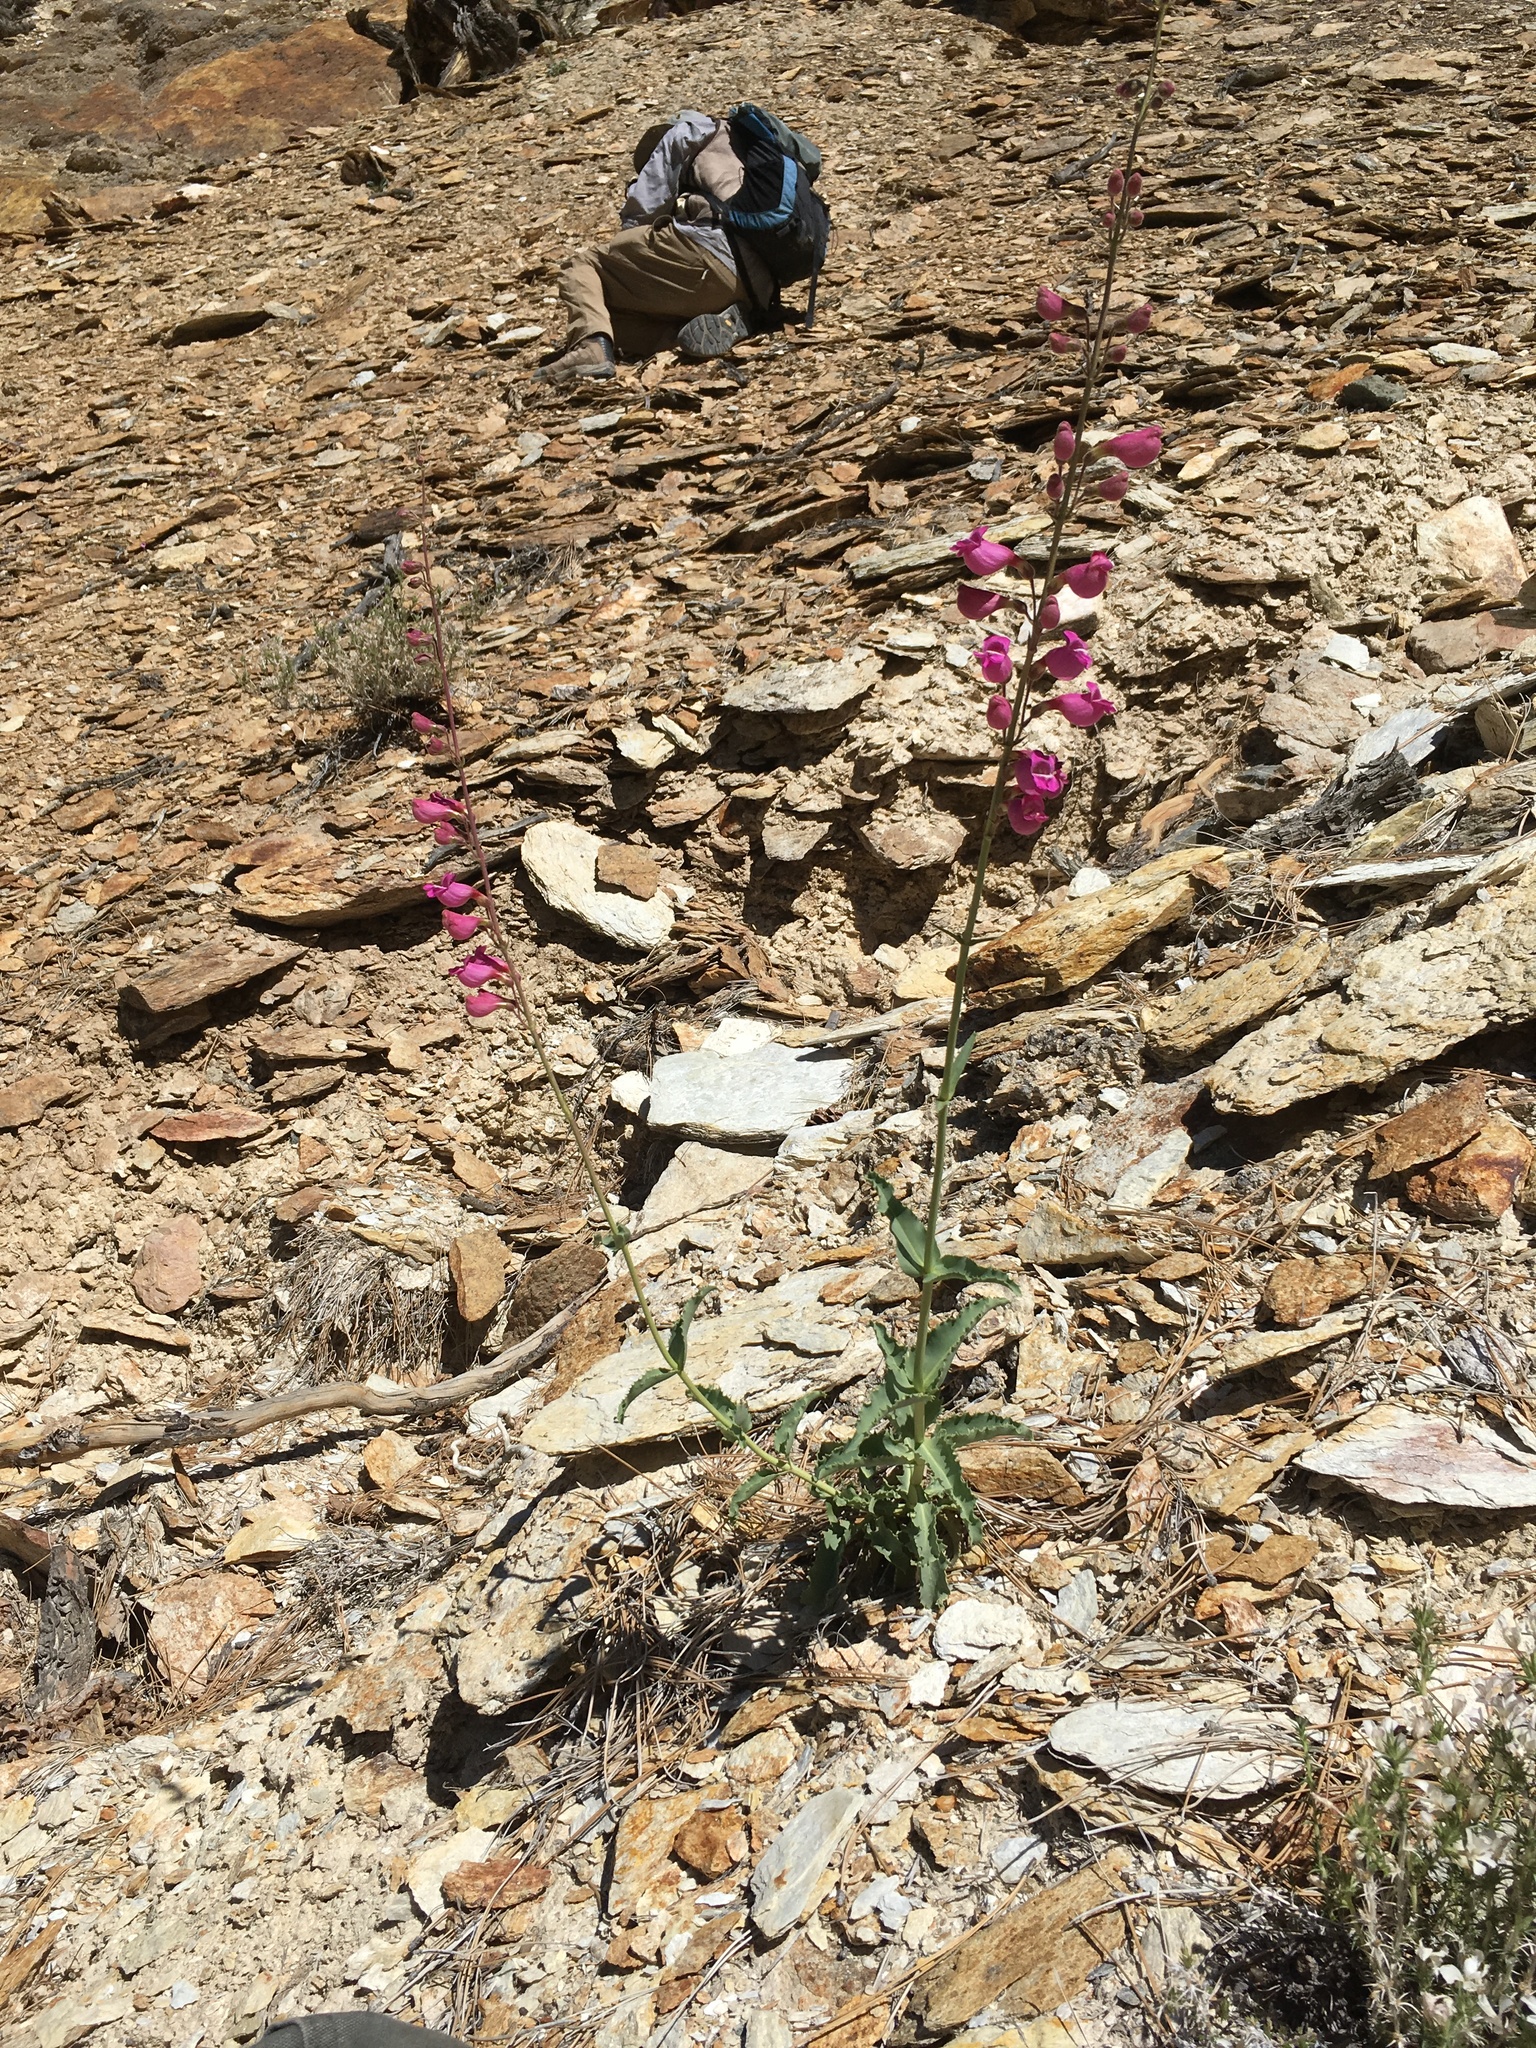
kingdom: Plantae
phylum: Tracheophyta
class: Magnoliopsida
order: Lamiales
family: Plantaginaceae
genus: Penstemon
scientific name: Penstemon floridus
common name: Panamint penstemon
